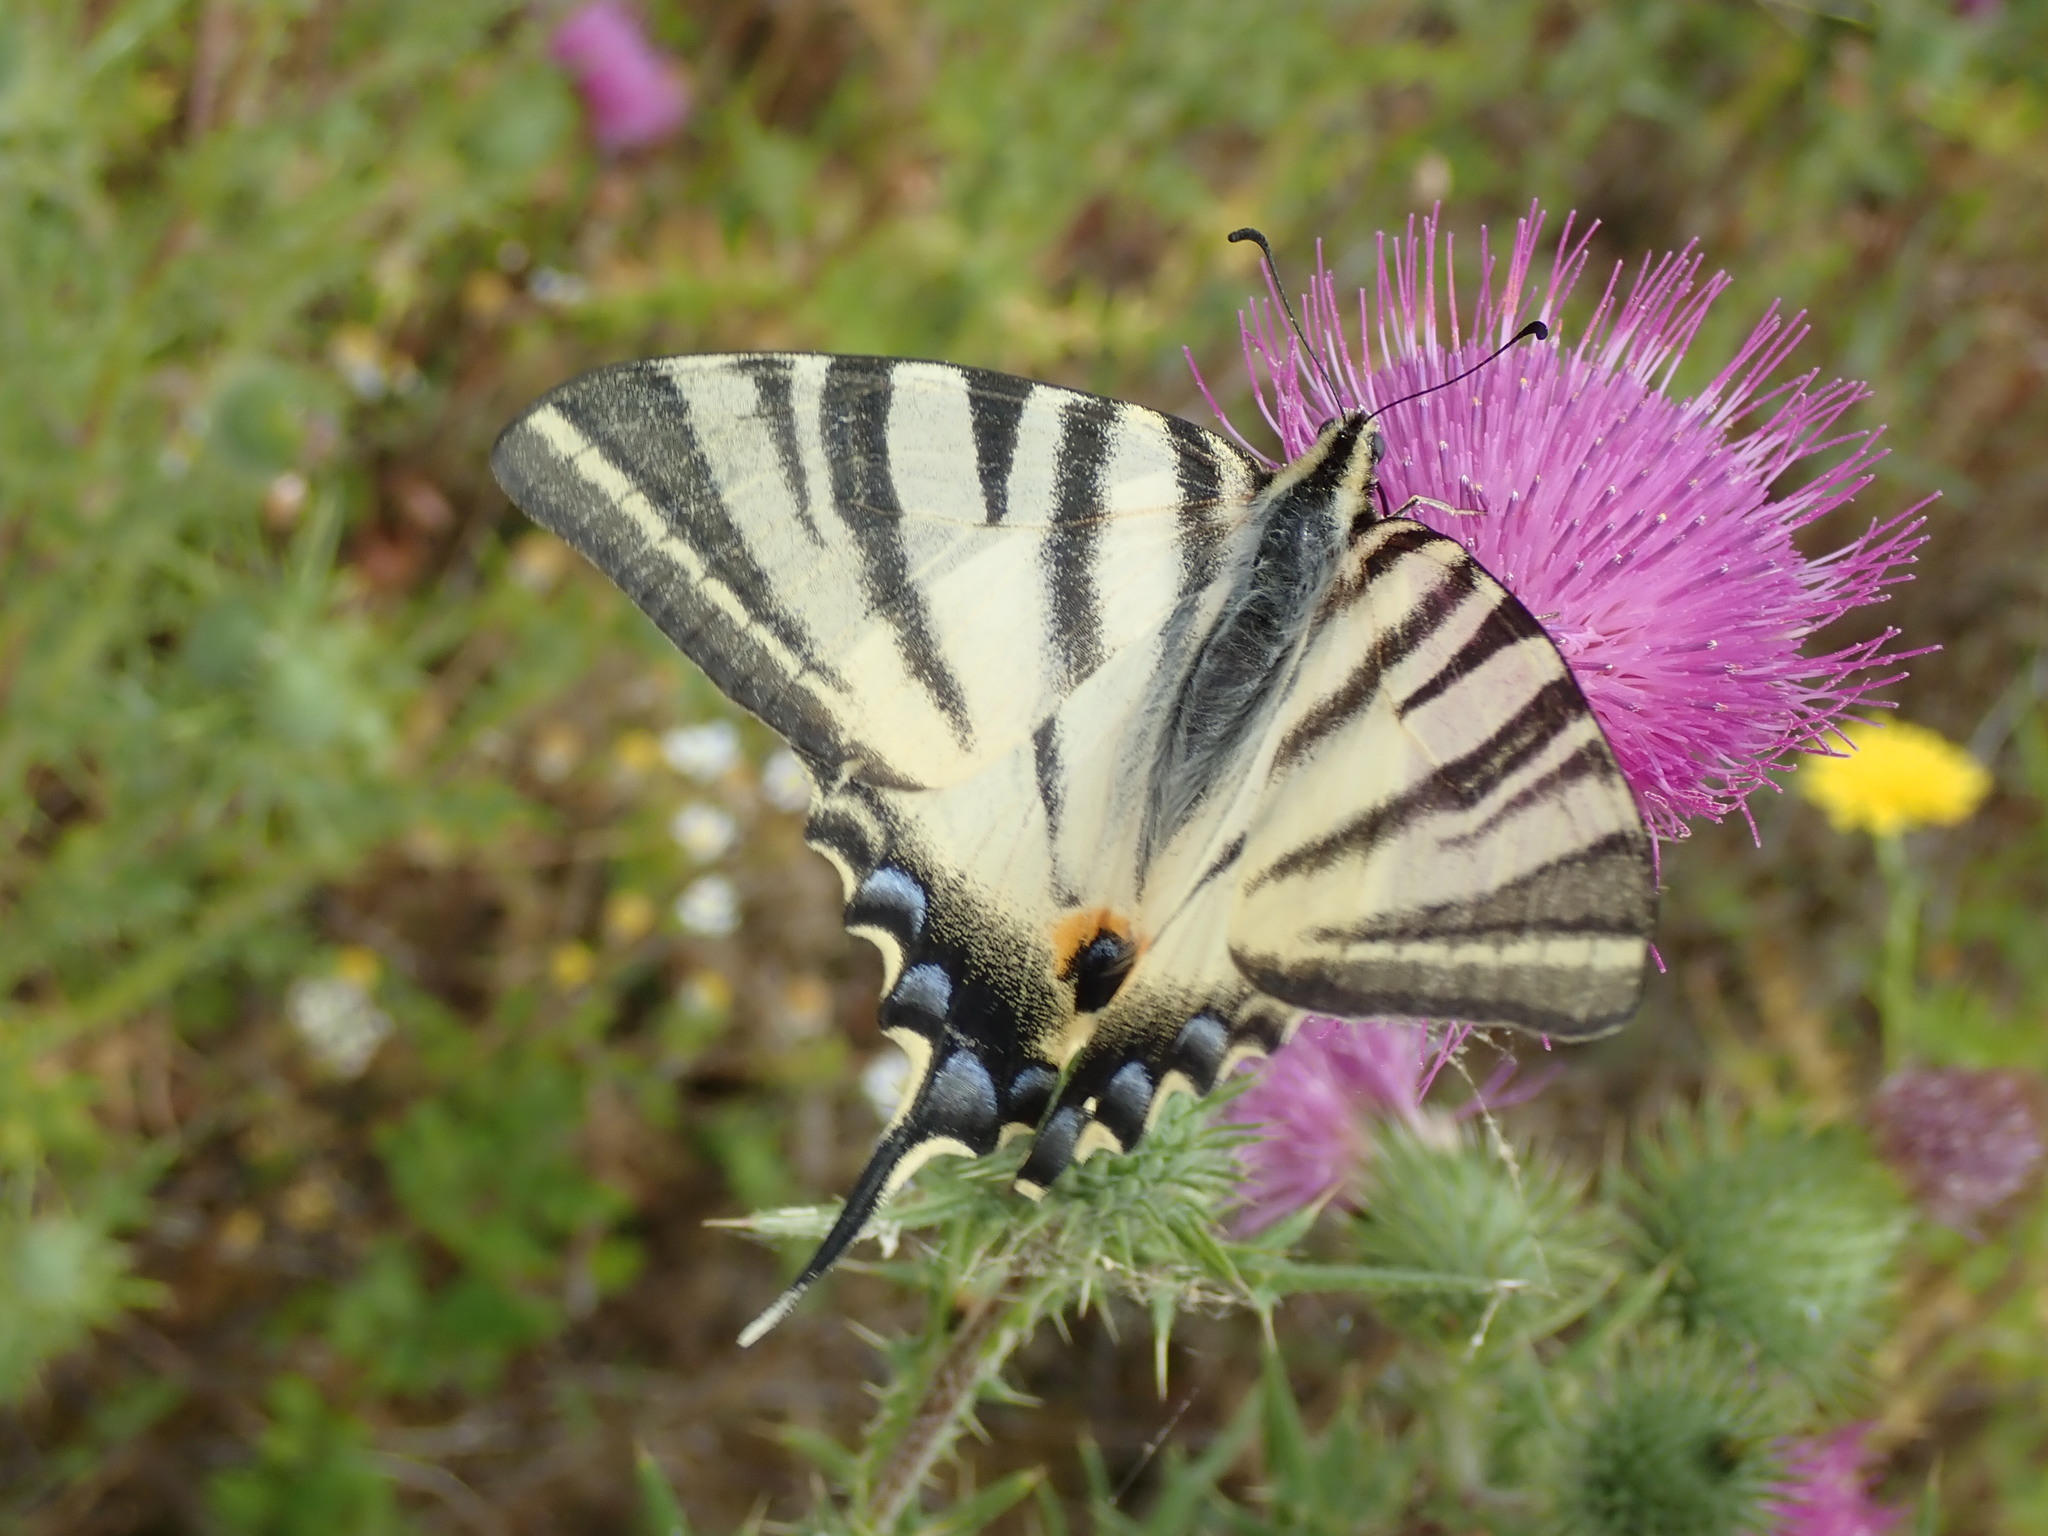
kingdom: Animalia
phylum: Arthropoda
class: Insecta
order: Lepidoptera
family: Papilionidae
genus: Iphiclides
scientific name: Iphiclides podalirius
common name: Scarce swallowtail
